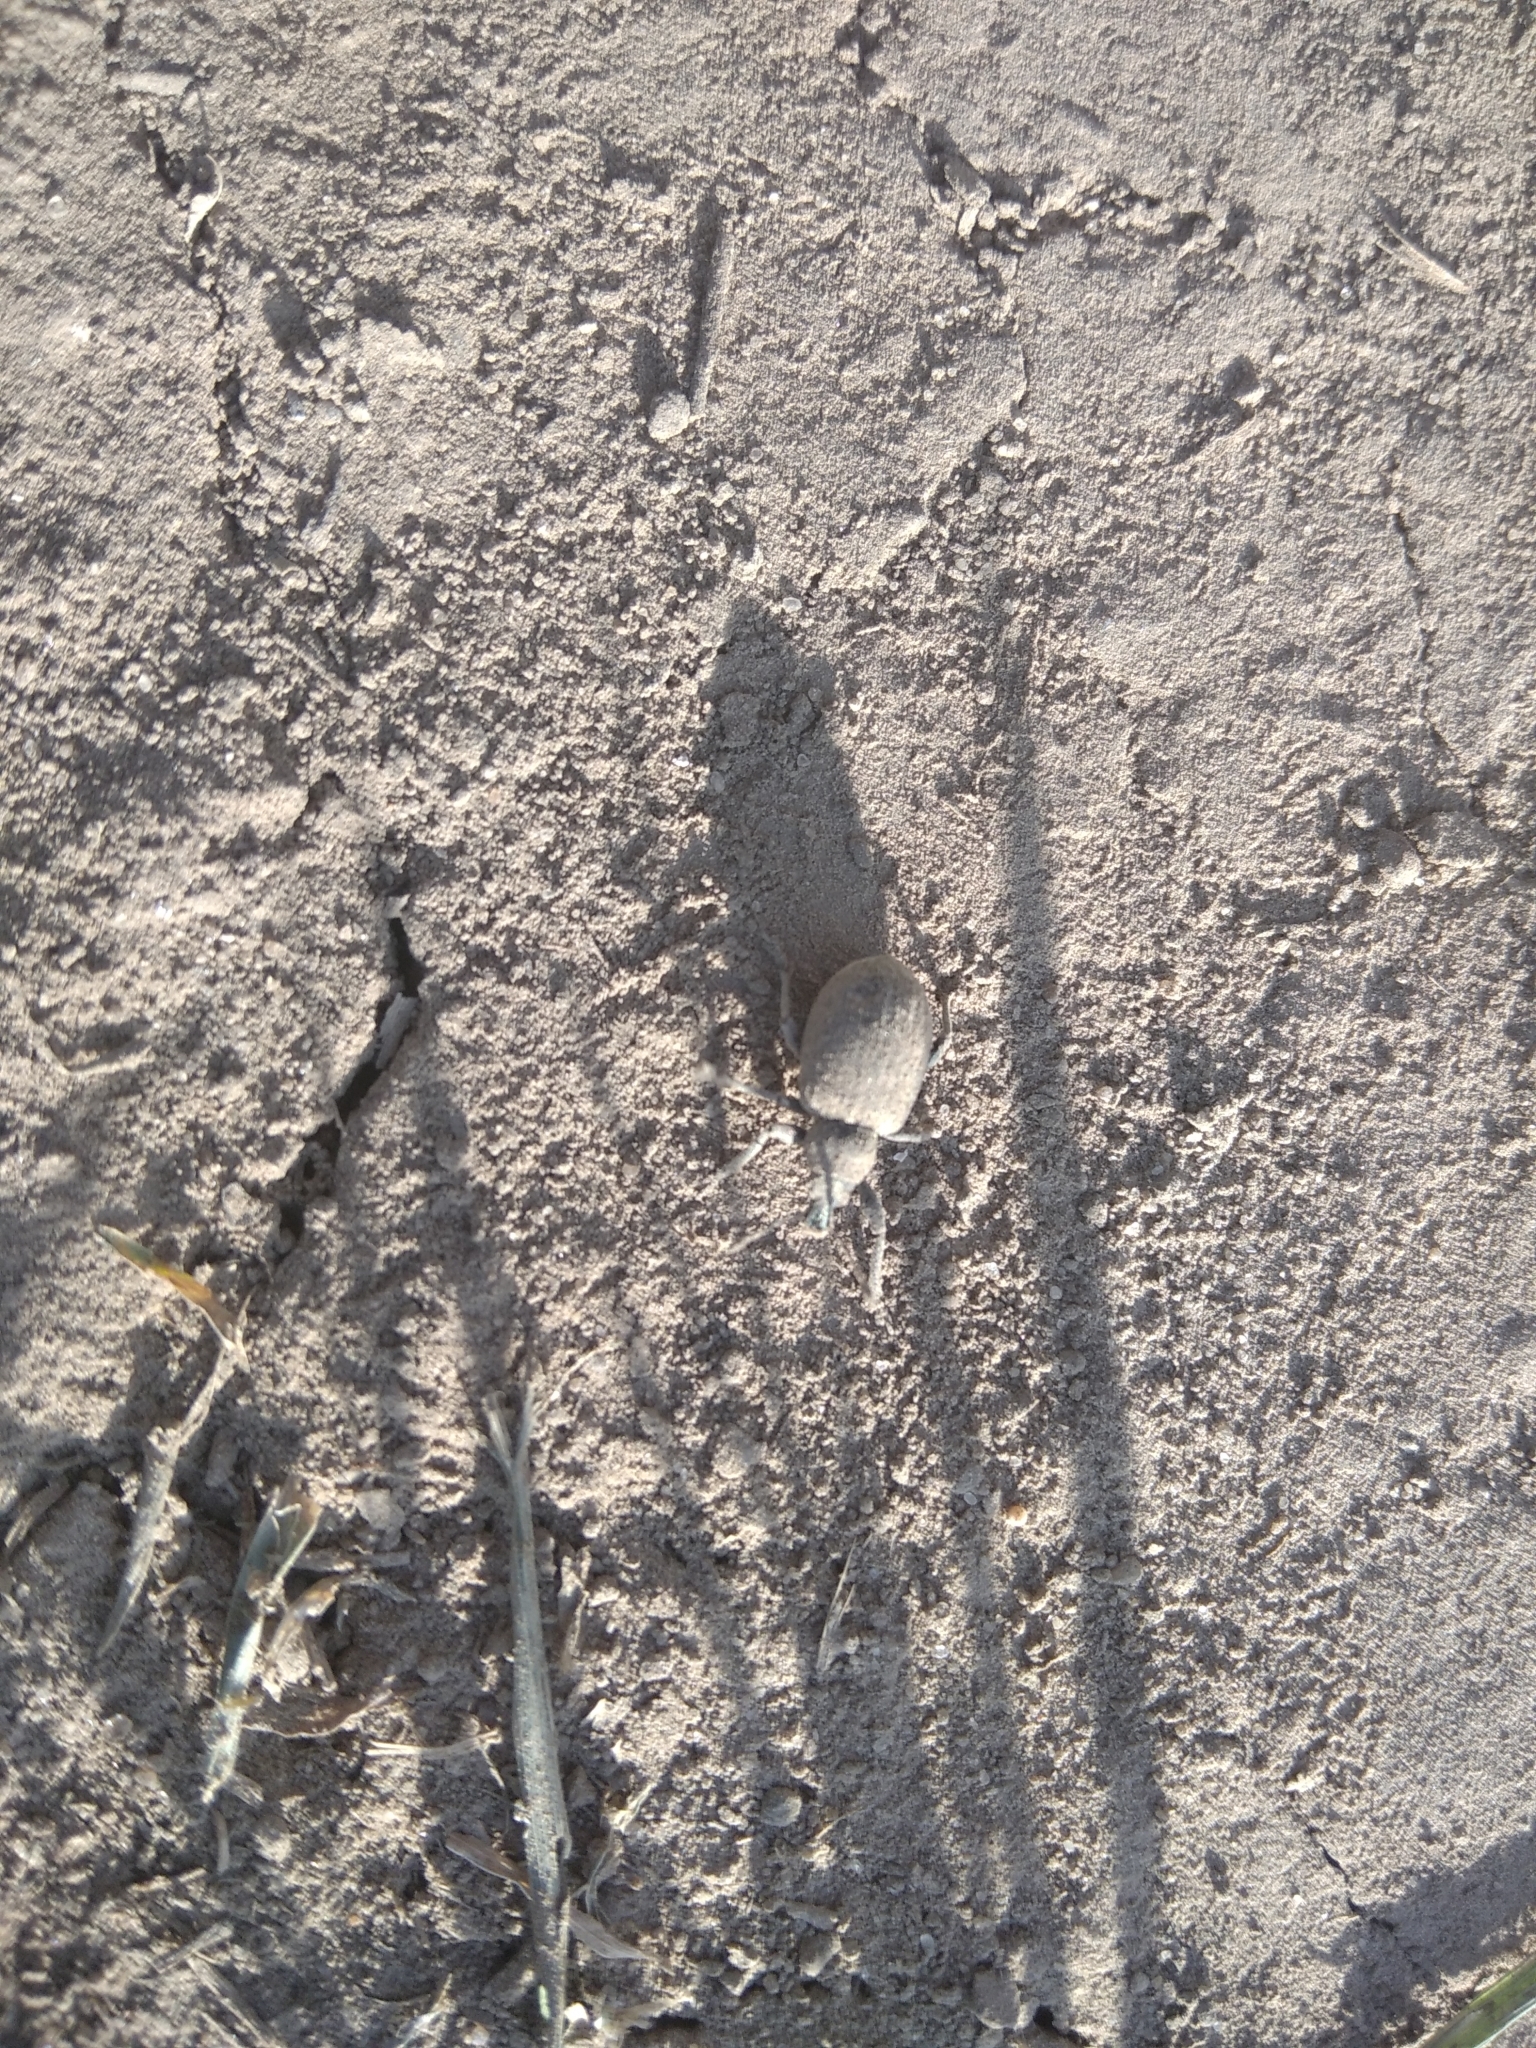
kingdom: Animalia
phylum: Arthropoda
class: Insecta
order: Coleoptera
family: Curculionidae
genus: Otiorhynchus
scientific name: Otiorhynchus ligustici
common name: Weevil
